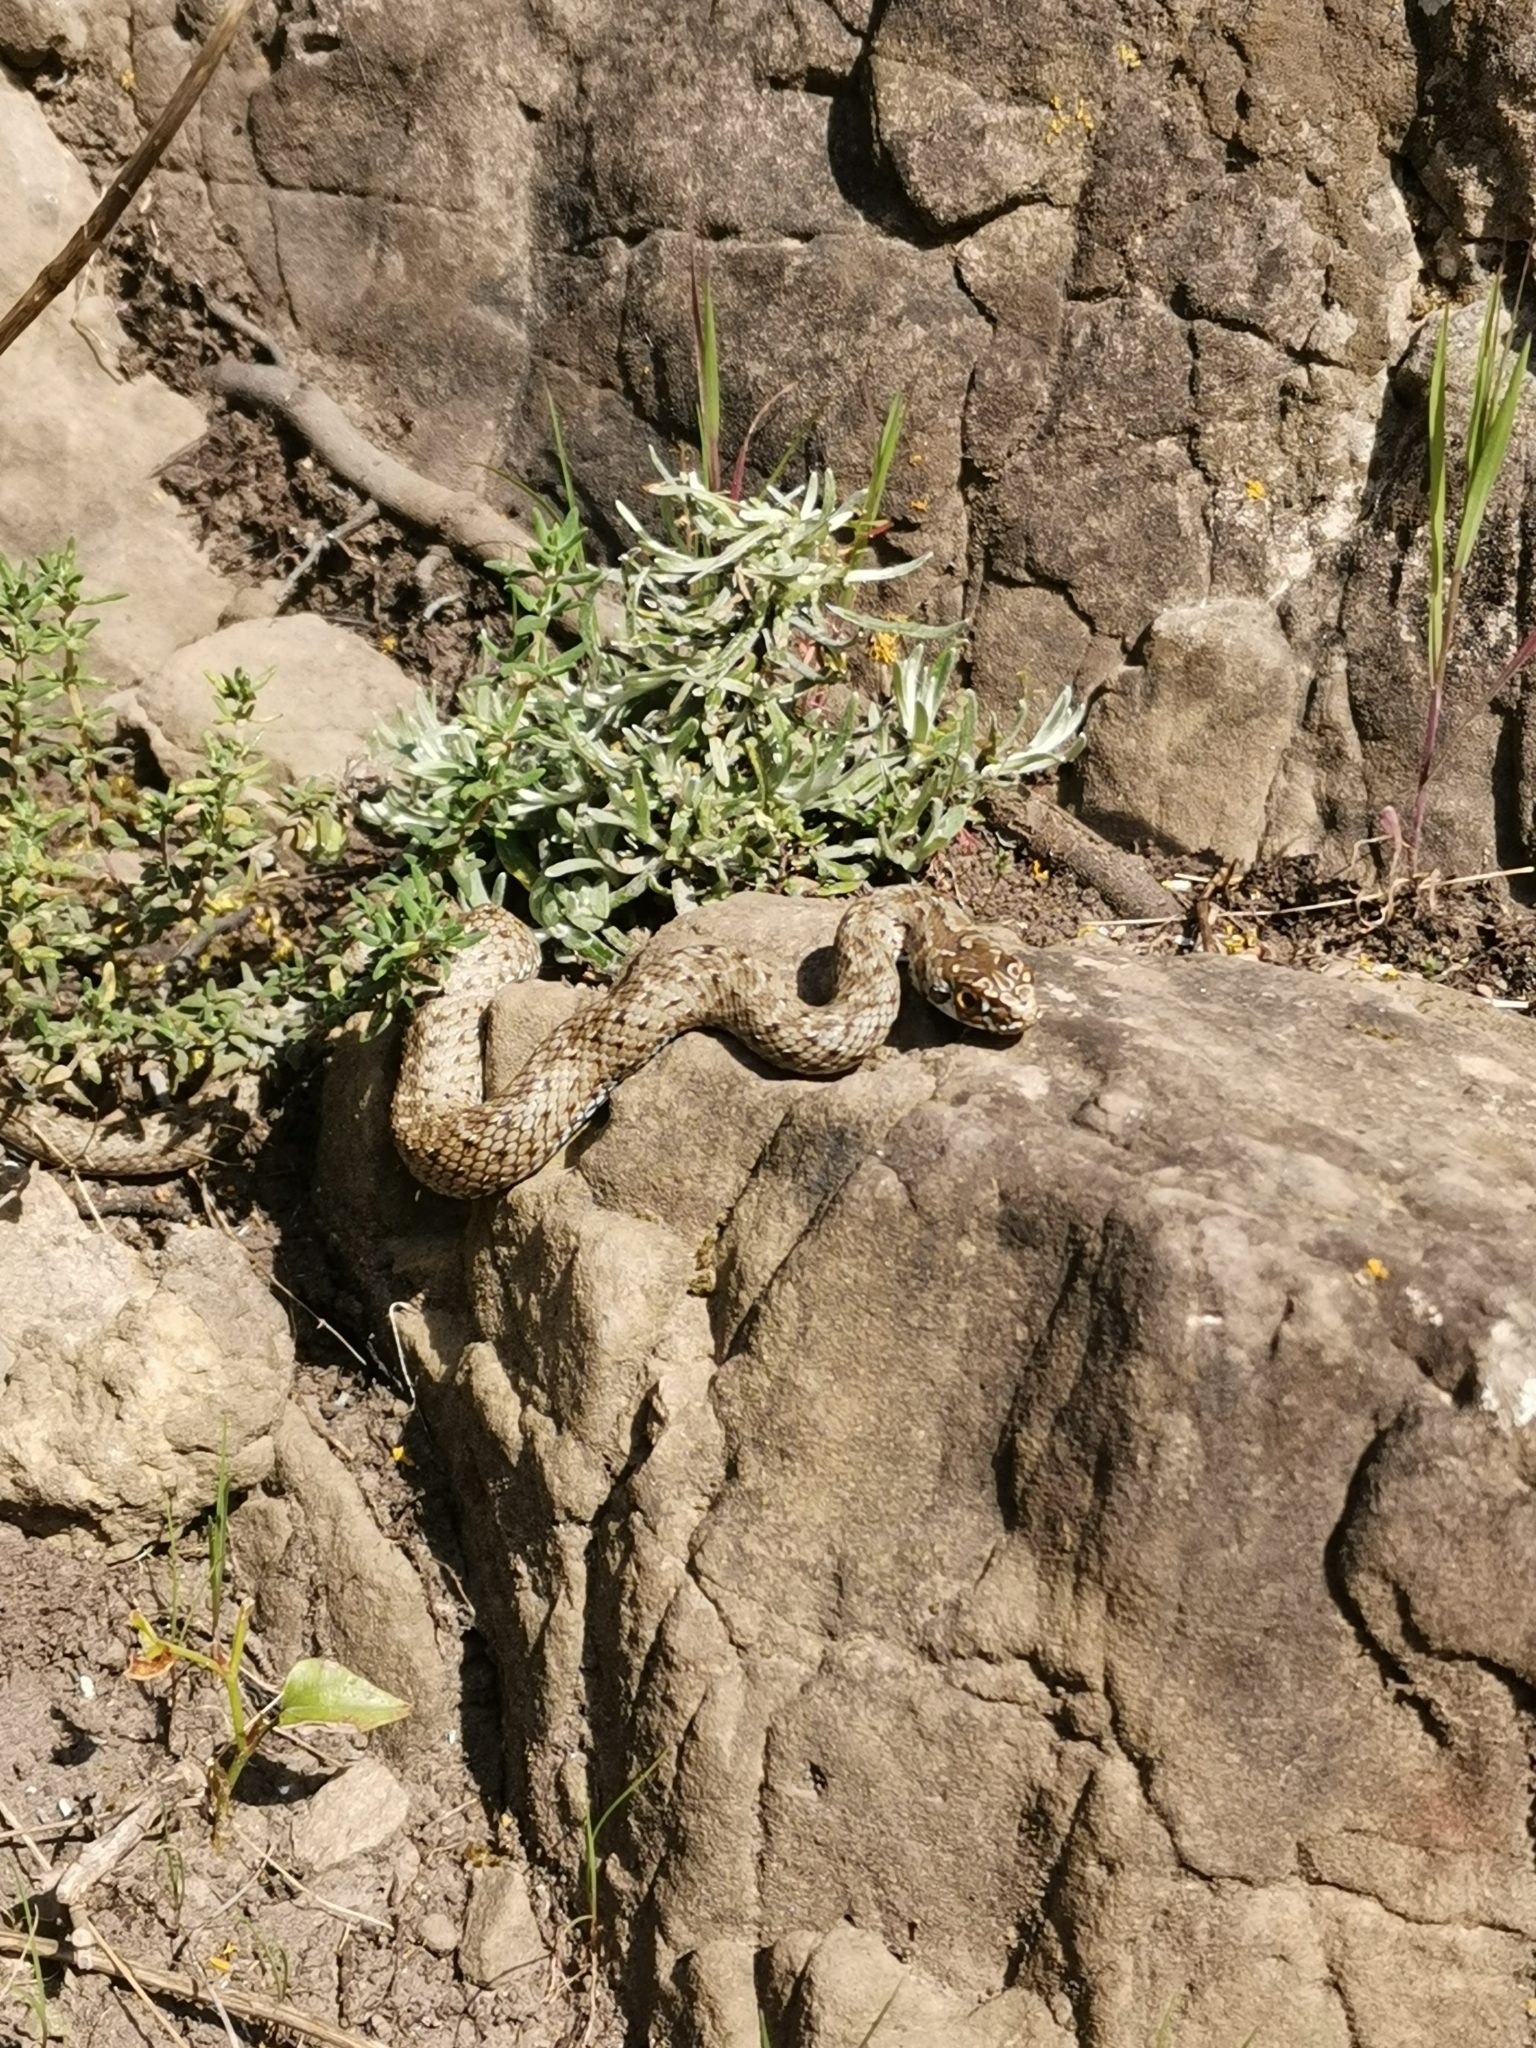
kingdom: Animalia
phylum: Chordata
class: Squamata
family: Psammophiidae
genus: Malpolon
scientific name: Malpolon monspessulanus
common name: Montpellier snake
